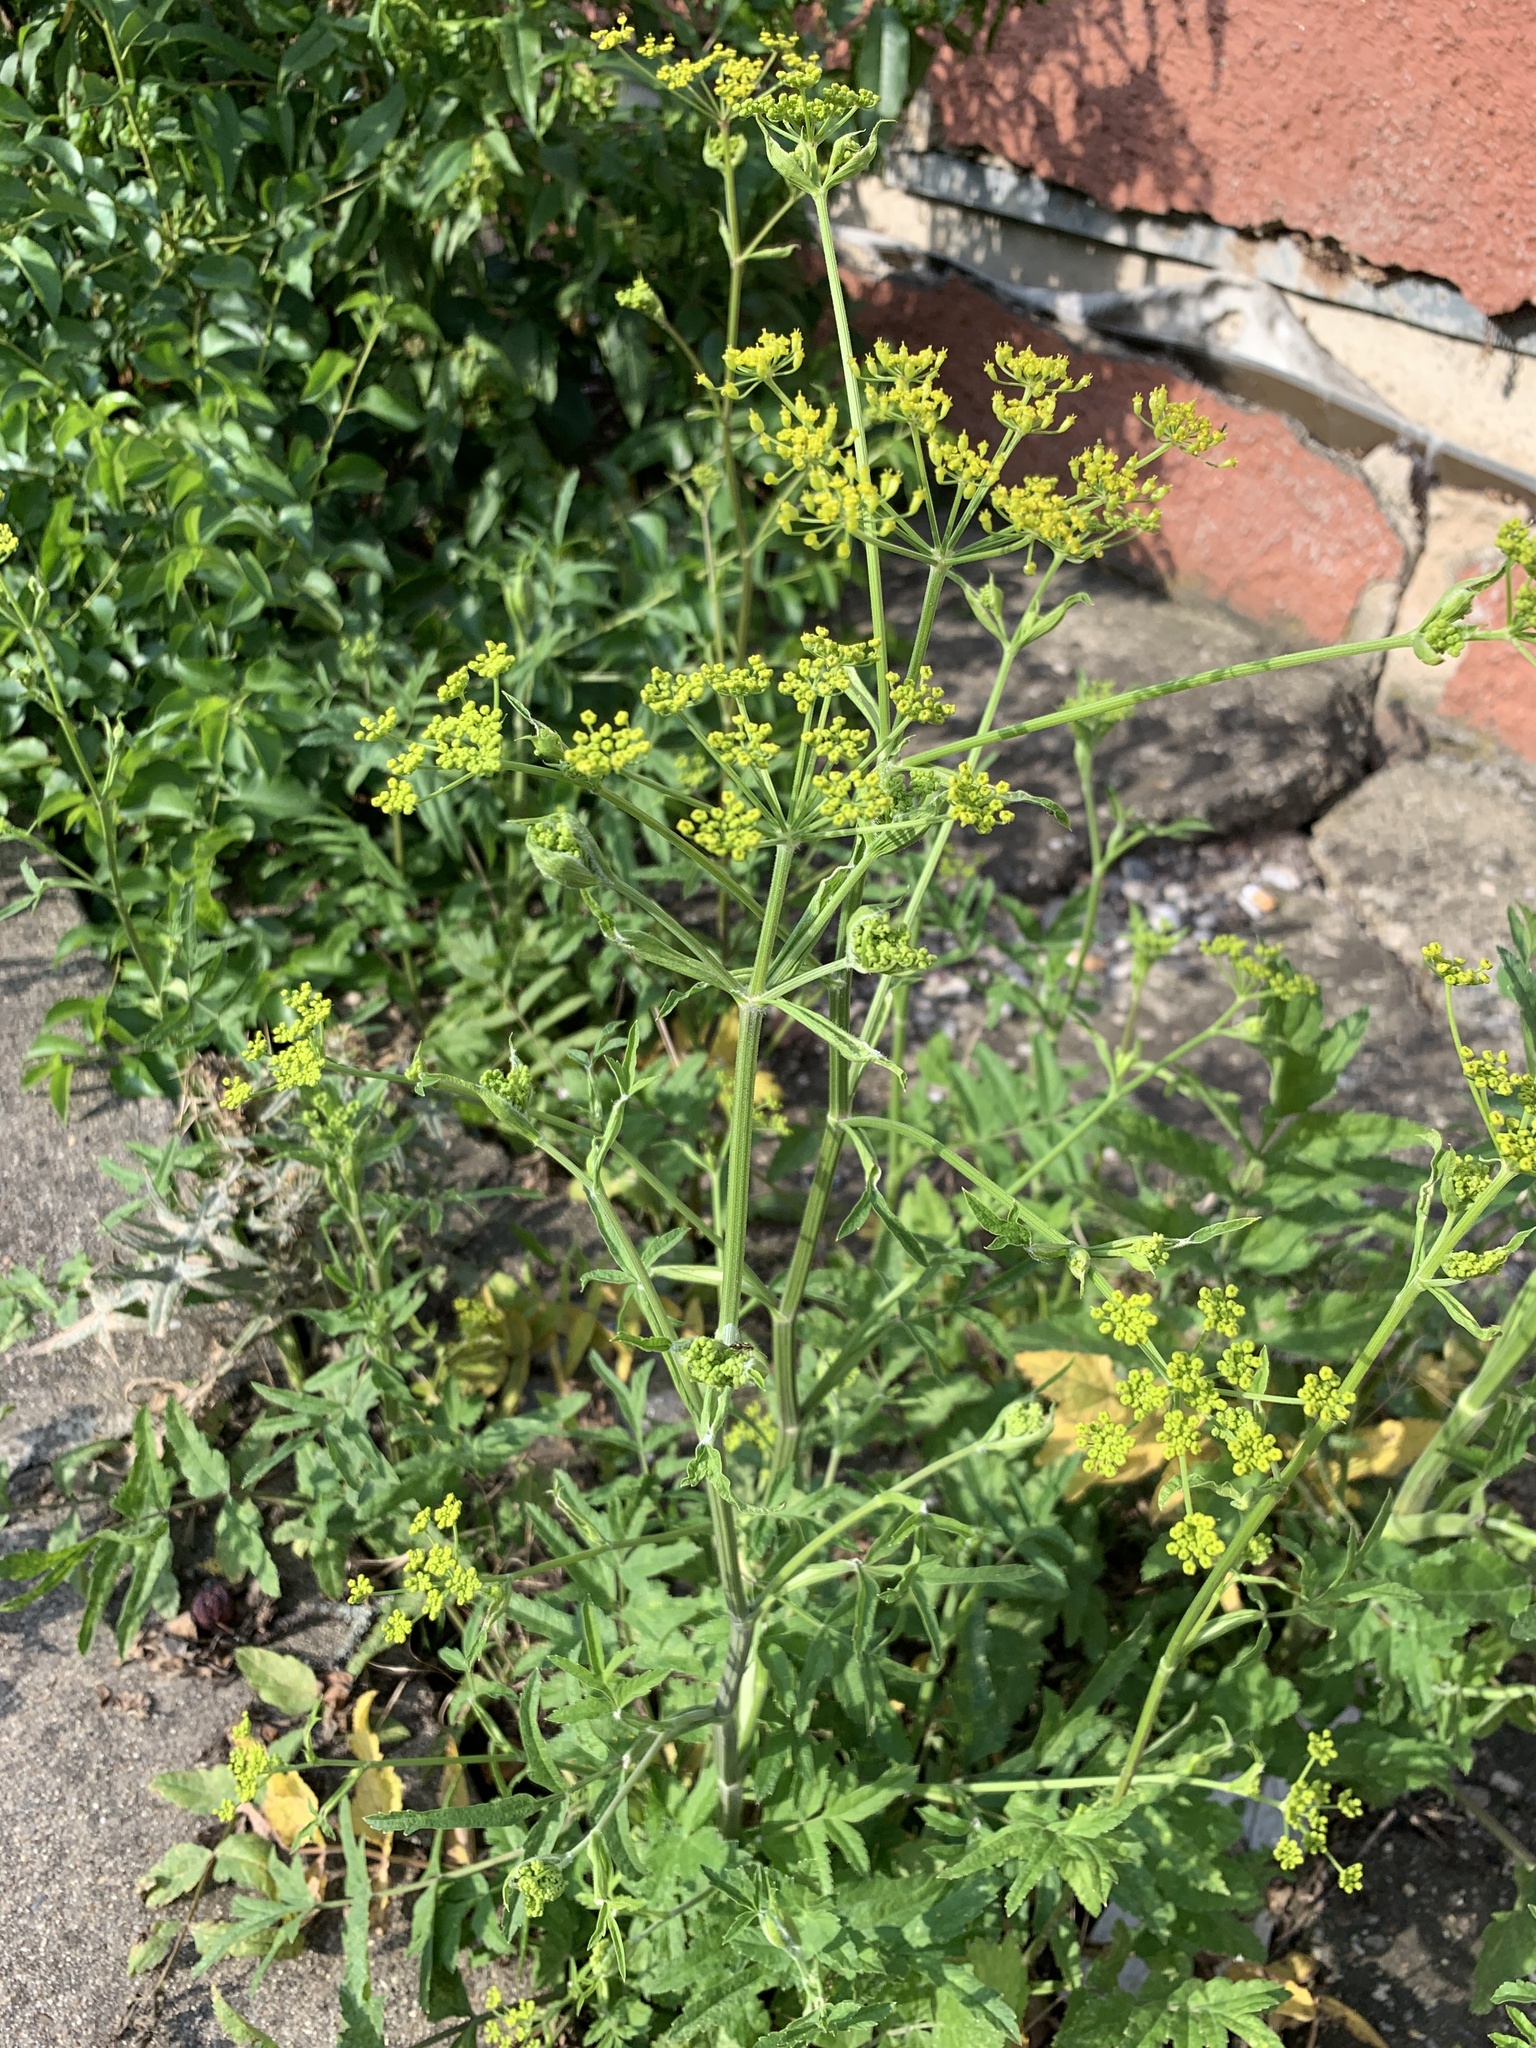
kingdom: Plantae
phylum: Tracheophyta
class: Magnoliopsida
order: Apiales
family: Apiaceae
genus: Pastinaca
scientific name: Pastinaca sativa
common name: Wild parsnip
